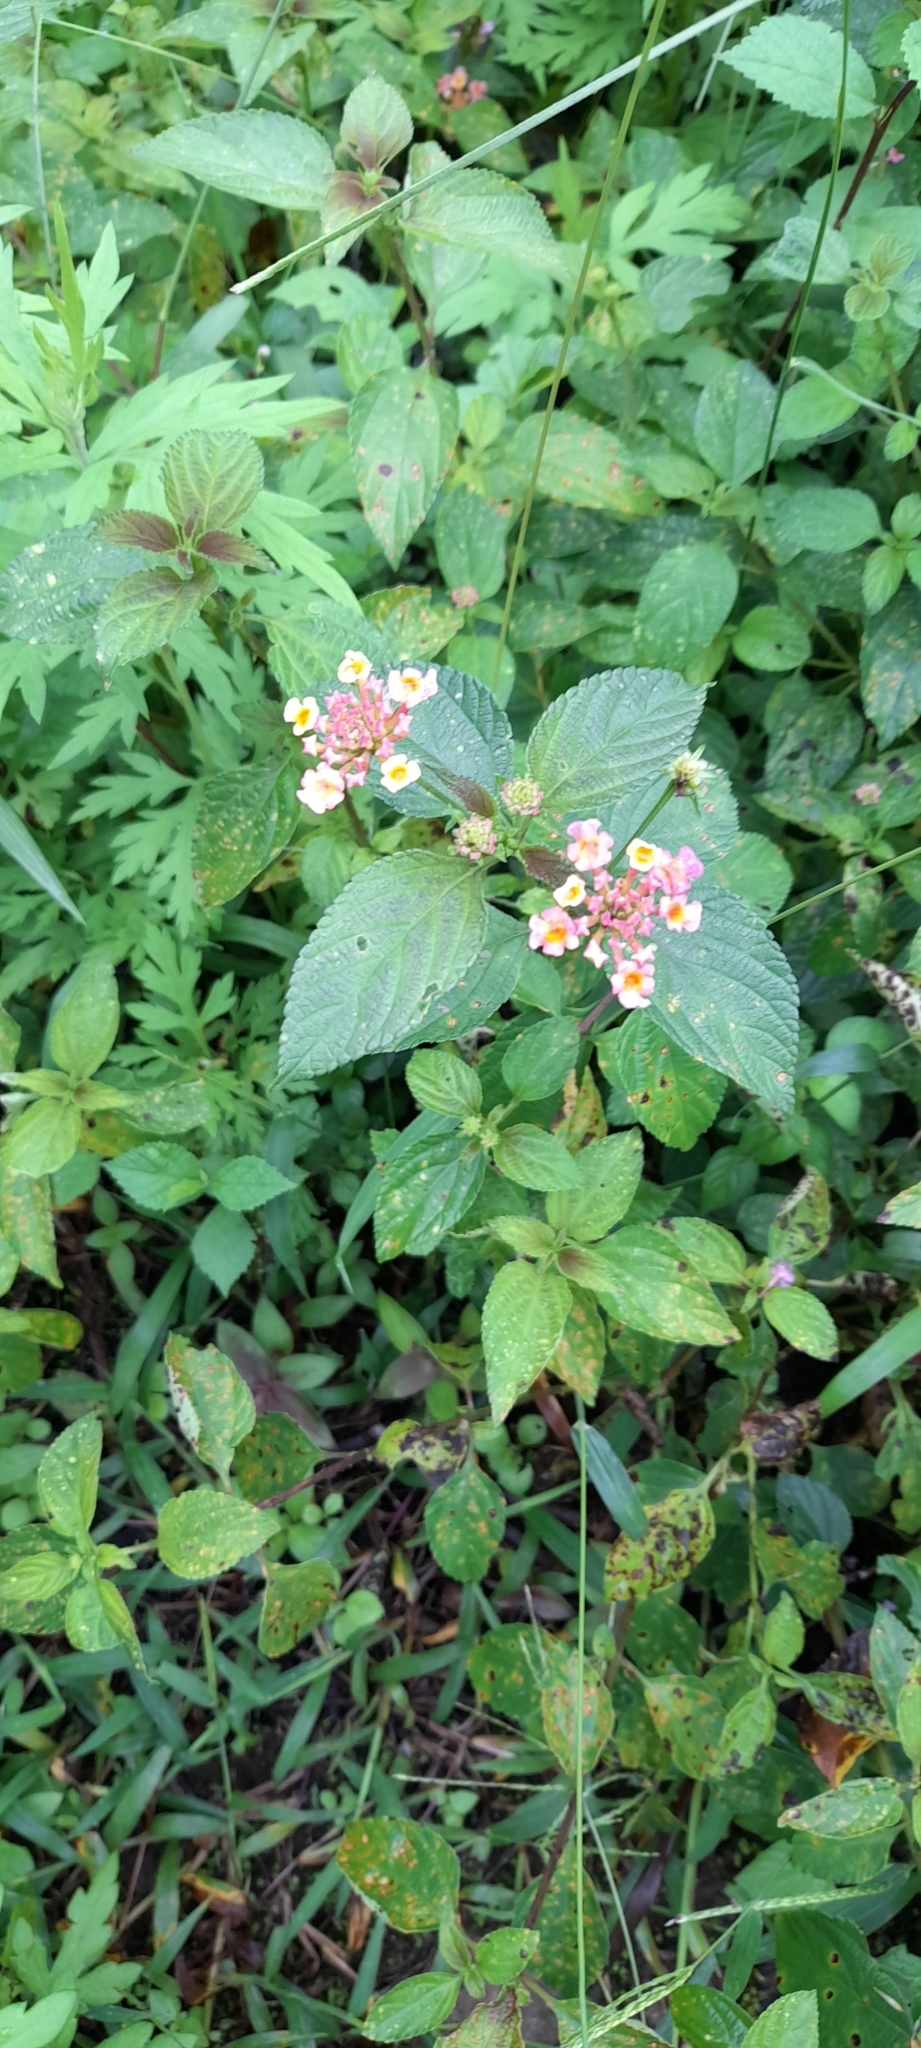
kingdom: Plantae
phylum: Tracheophyta
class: Magnoliopsida
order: Lamiales
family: Verbenaceae
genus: Lantana
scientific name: Lantana camara
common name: Lantana
